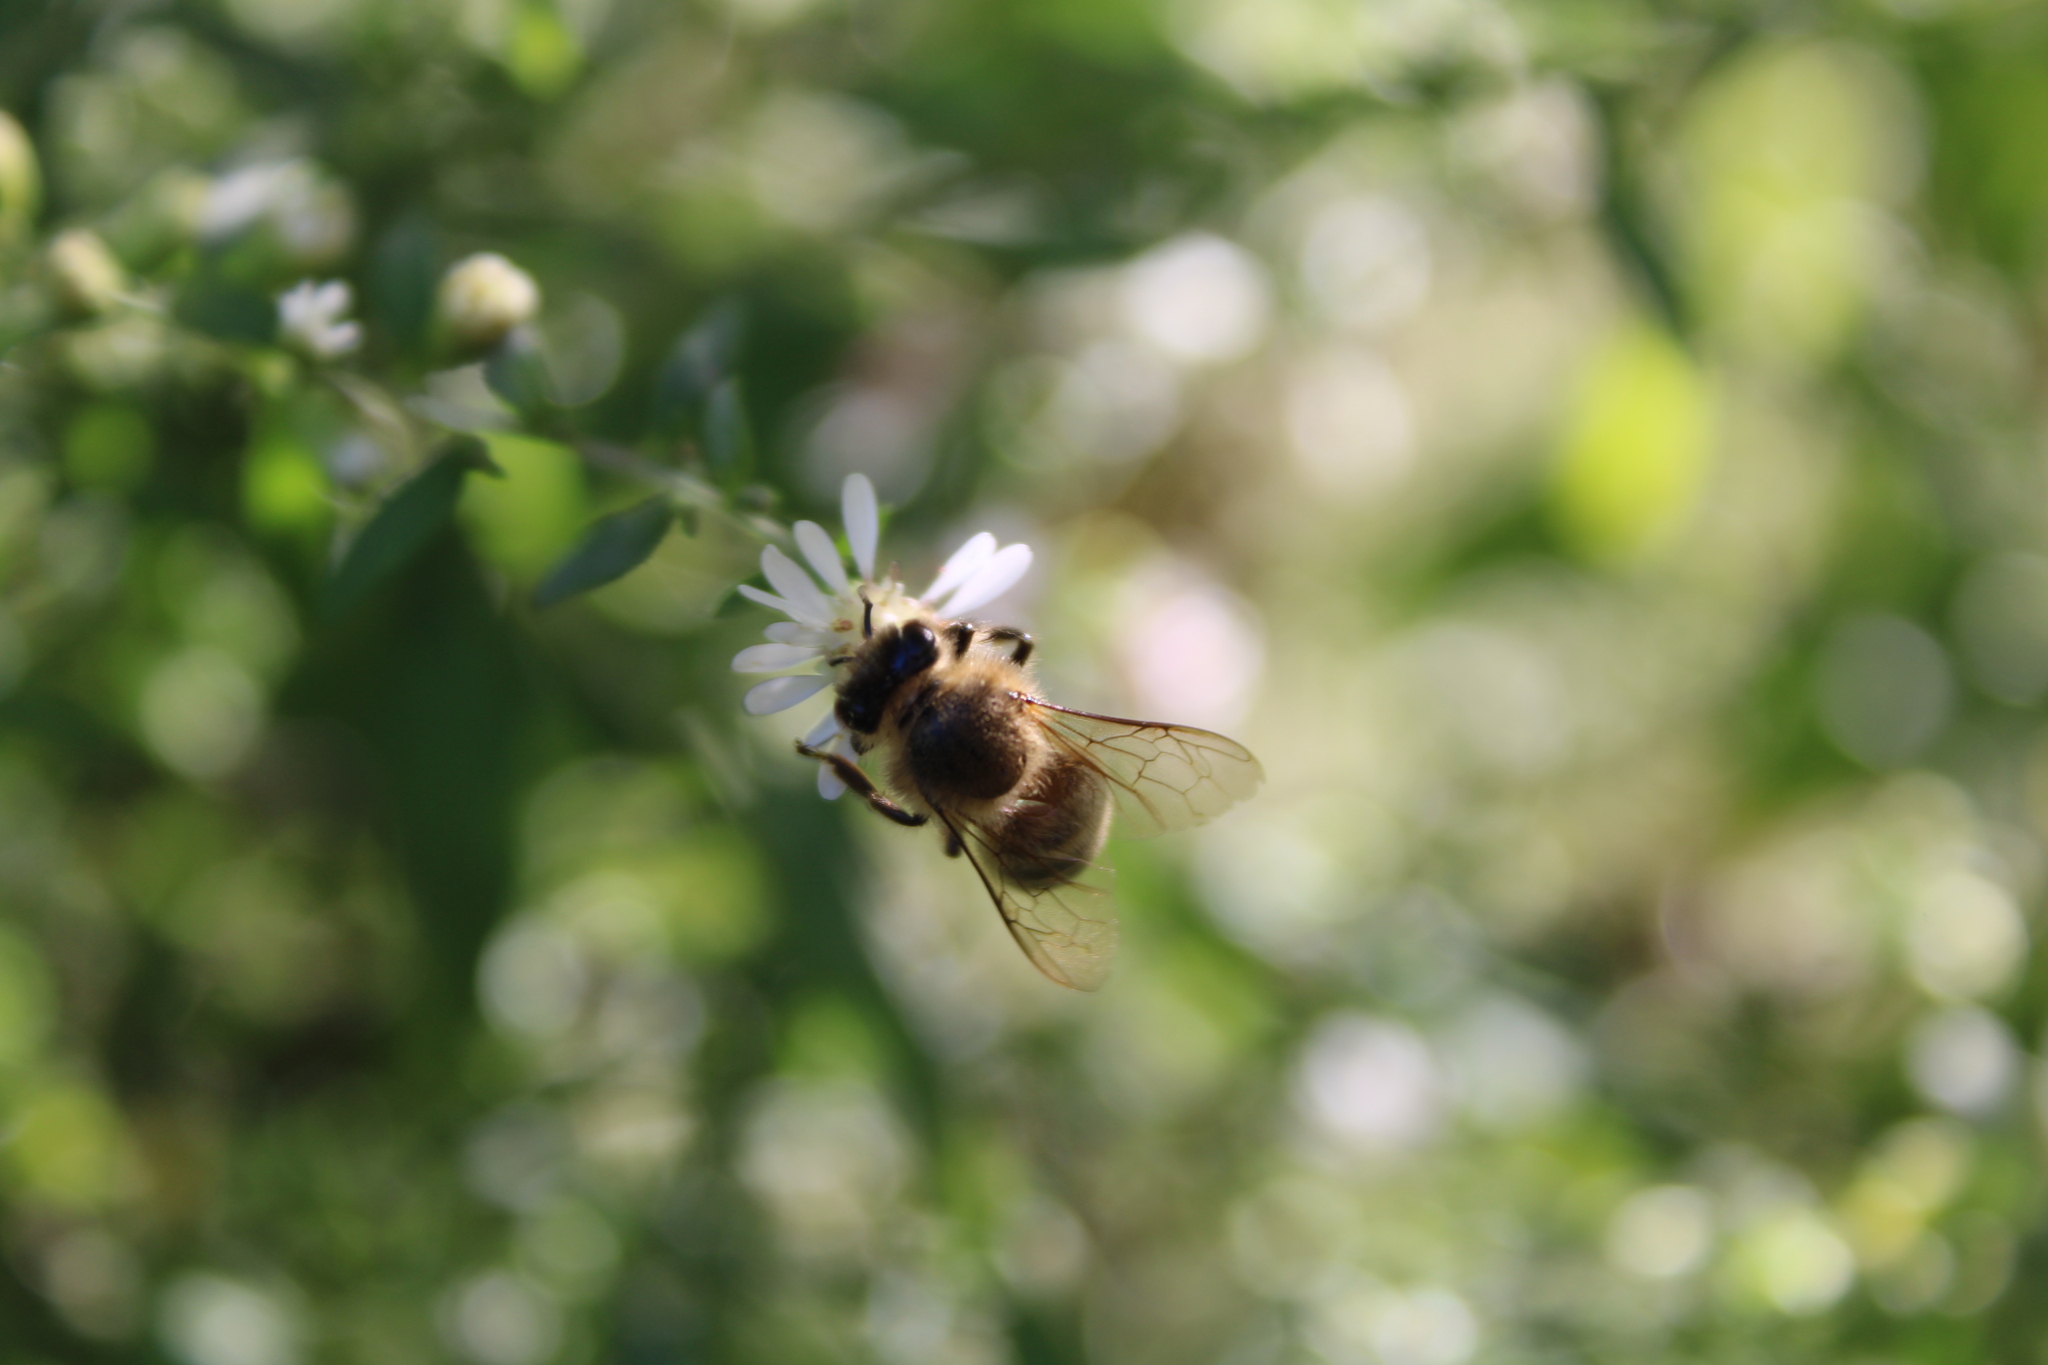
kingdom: Animalia
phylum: Arthropoda
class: Insecta
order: Hymenoptera
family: Apidae
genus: Apis
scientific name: Apis mellifera
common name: Honey bee
